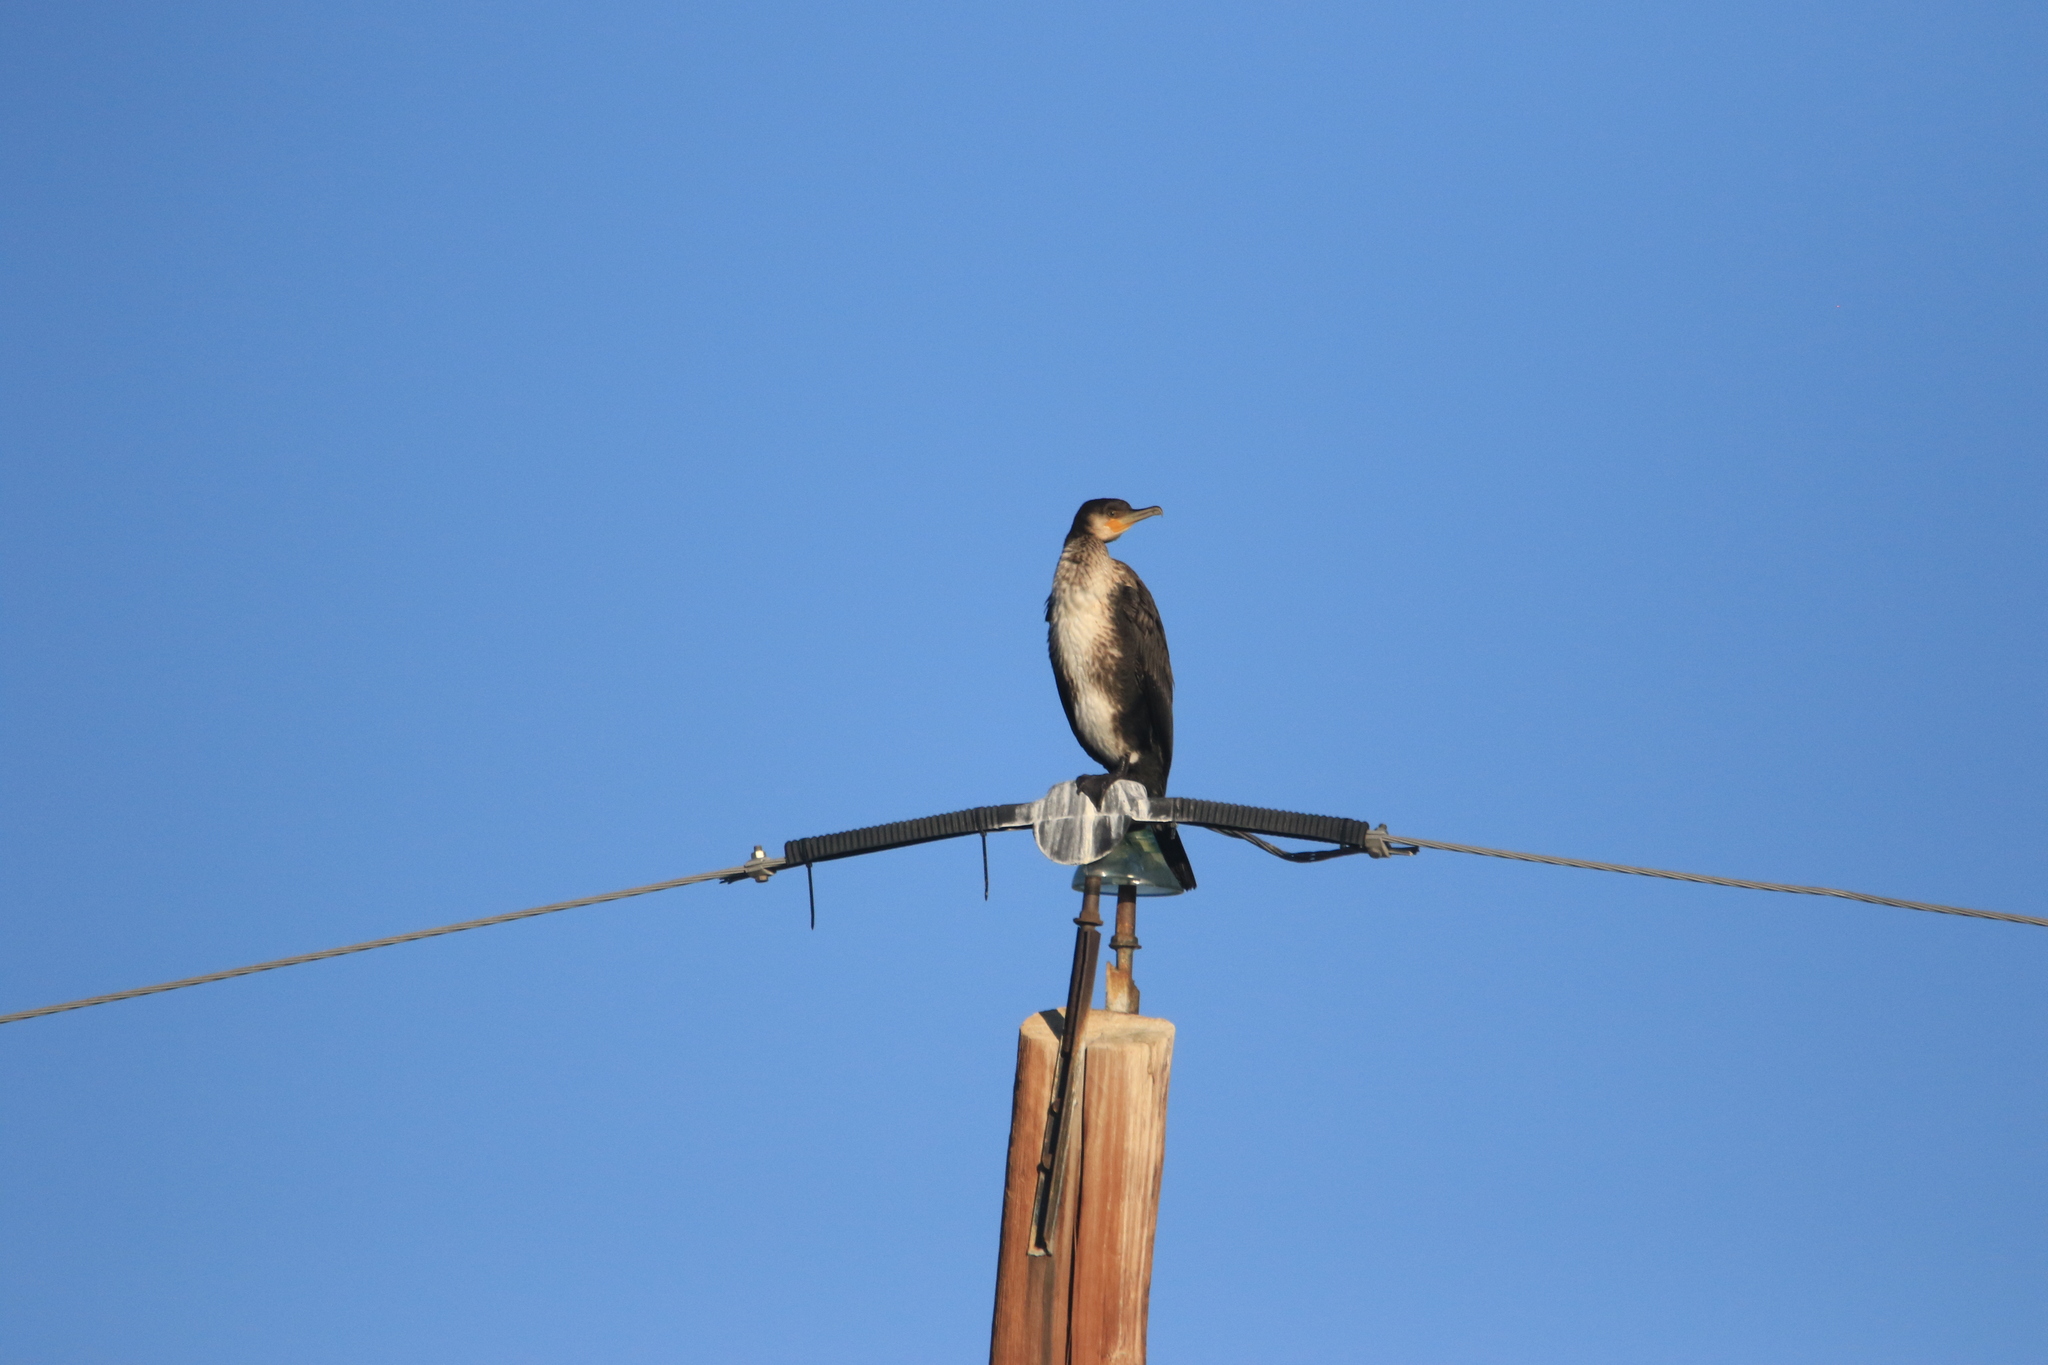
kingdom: Animalia
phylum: Chordata
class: Aves
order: Suliformes
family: Phalacrocoracidae
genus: Phalacrocorax
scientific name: Phalacrocorax carbo
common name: Great cormorant
